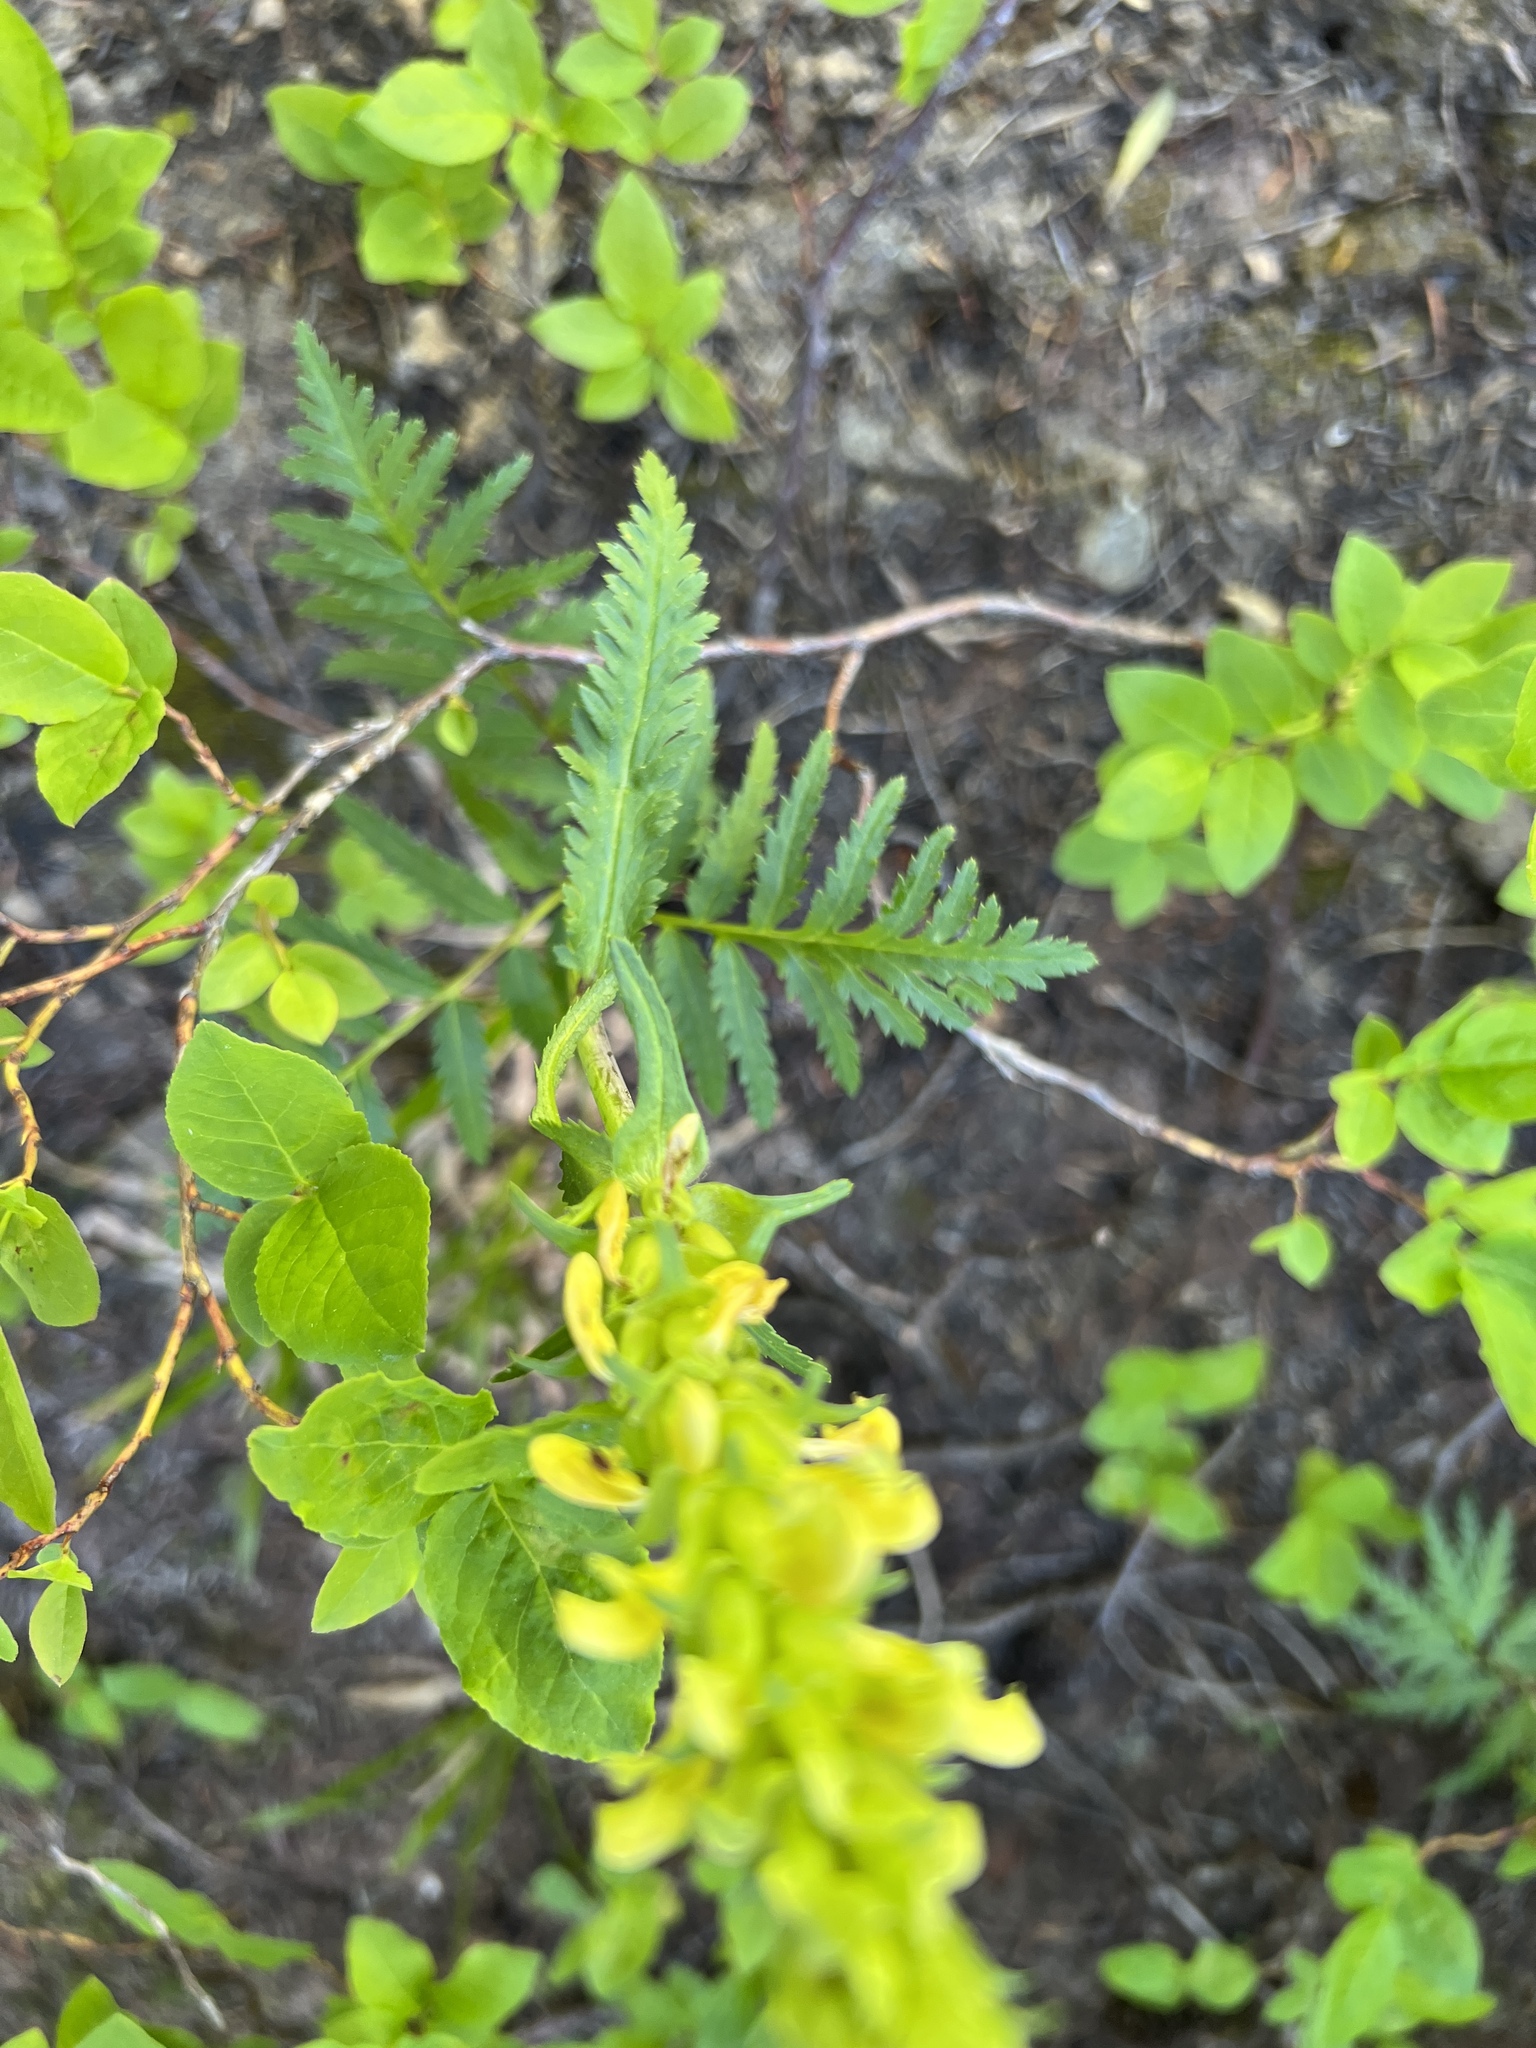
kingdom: Plantae
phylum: Tracheophyta
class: Magnoliopsida
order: Lamiales
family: Orobanchaceae
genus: Pedicularis
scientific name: Pedicularis bracteosa
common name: Bracted lousewort
